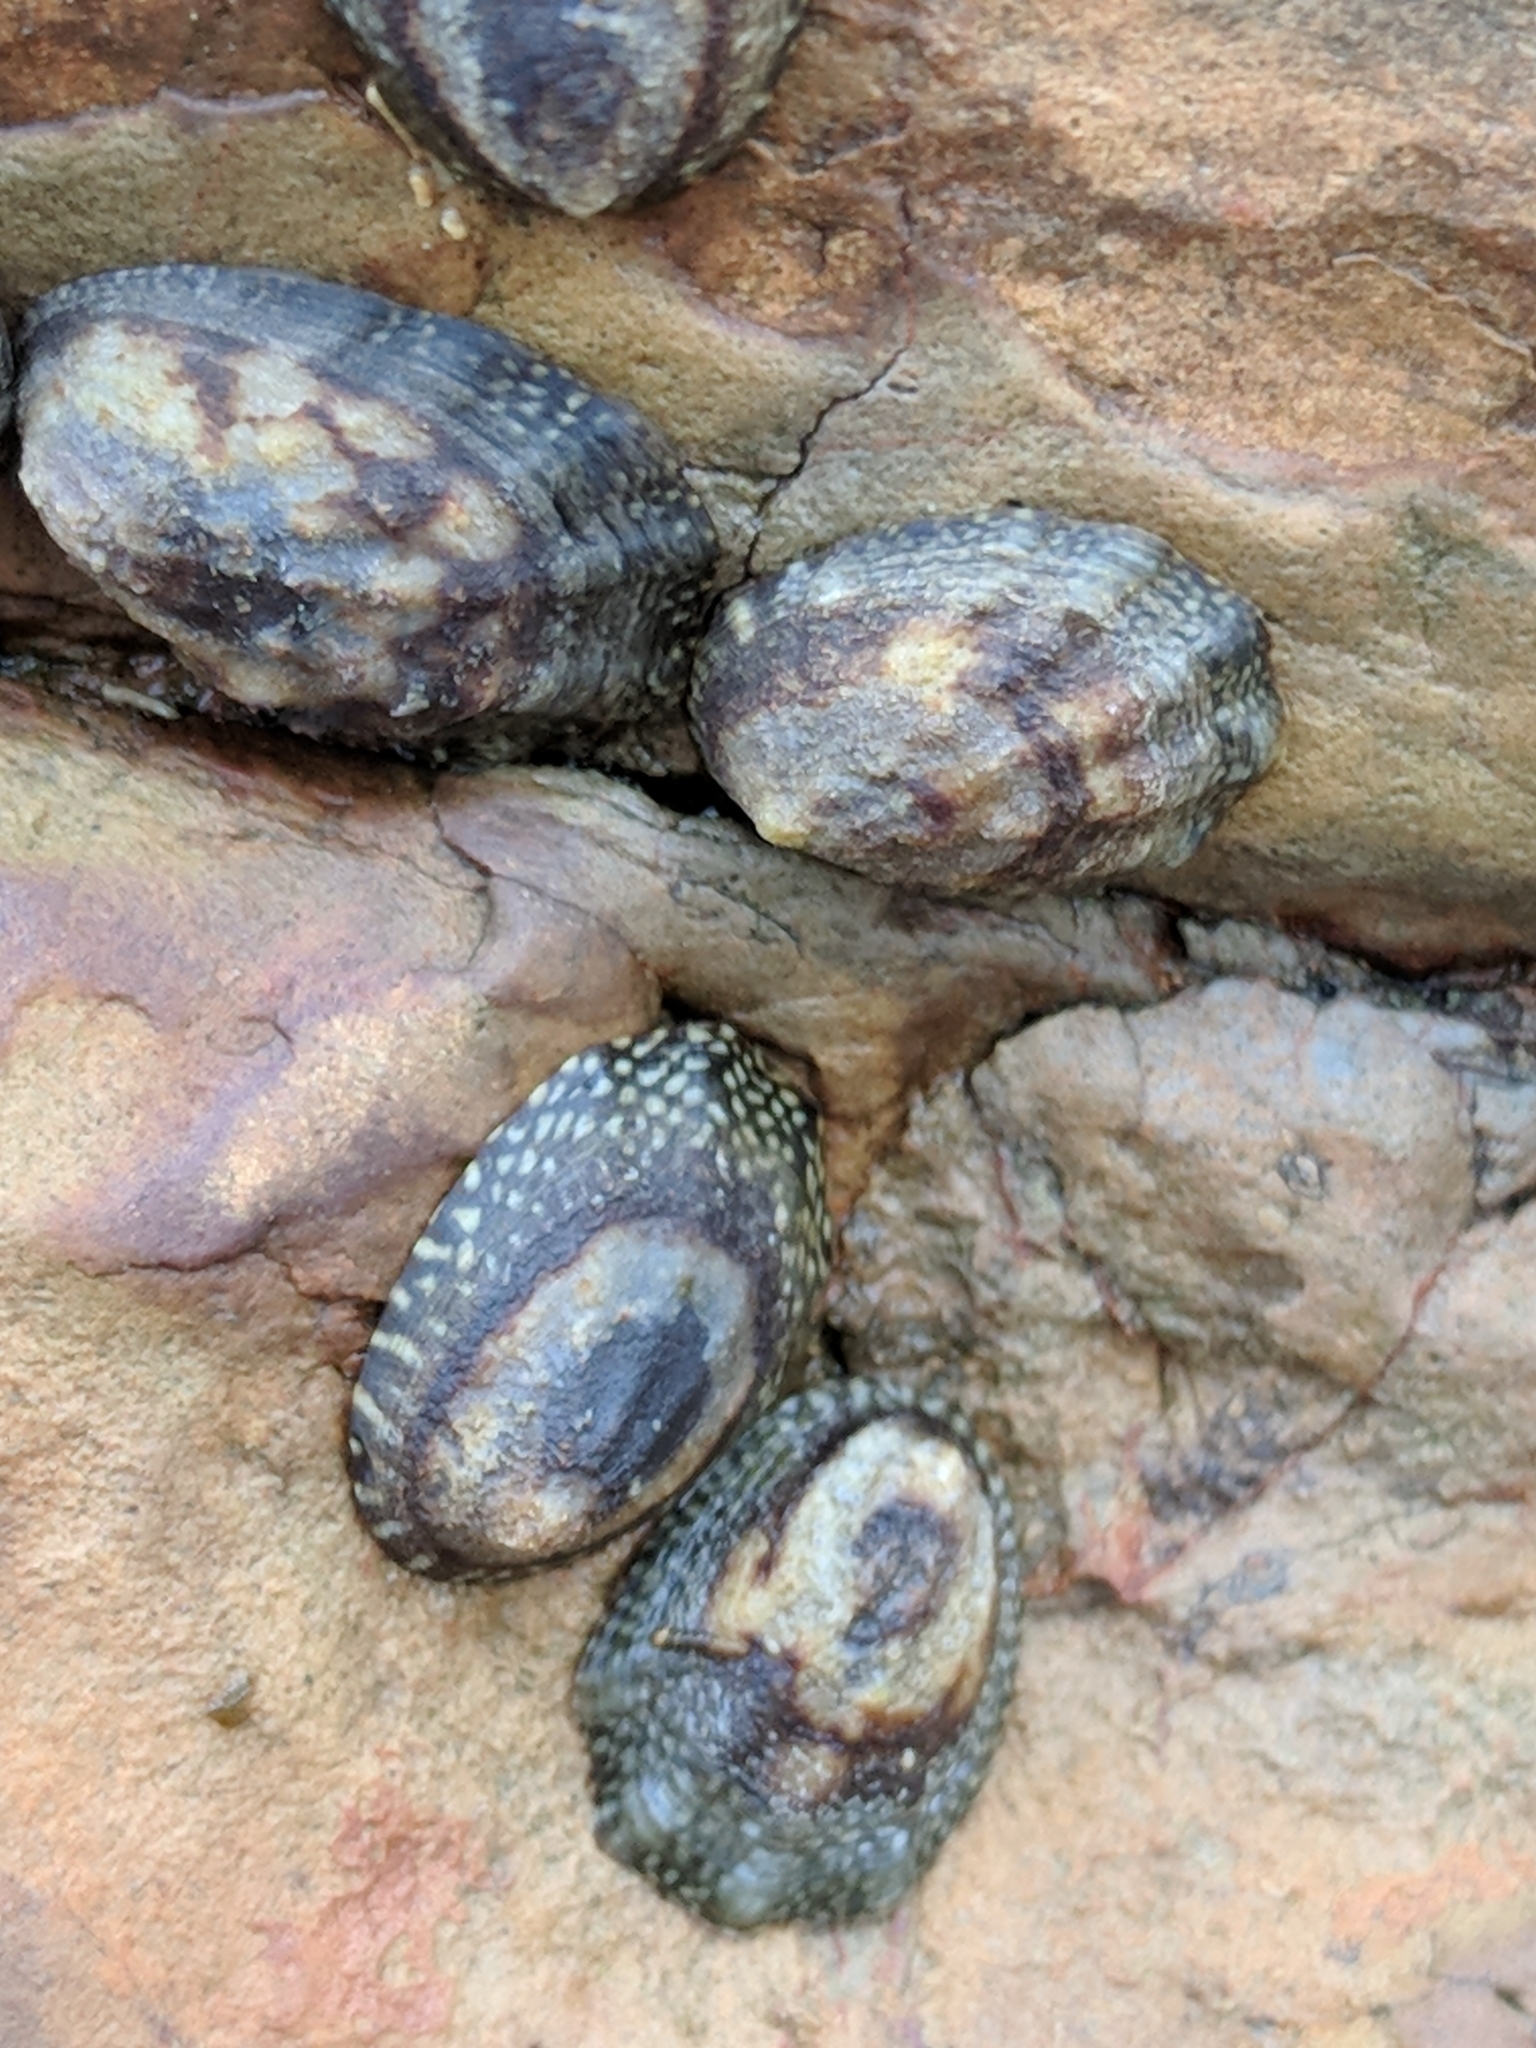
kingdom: Animalia
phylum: Mollusca
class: Gastropoda
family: Lottiidae
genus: Lottia
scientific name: Lottia digitalis
